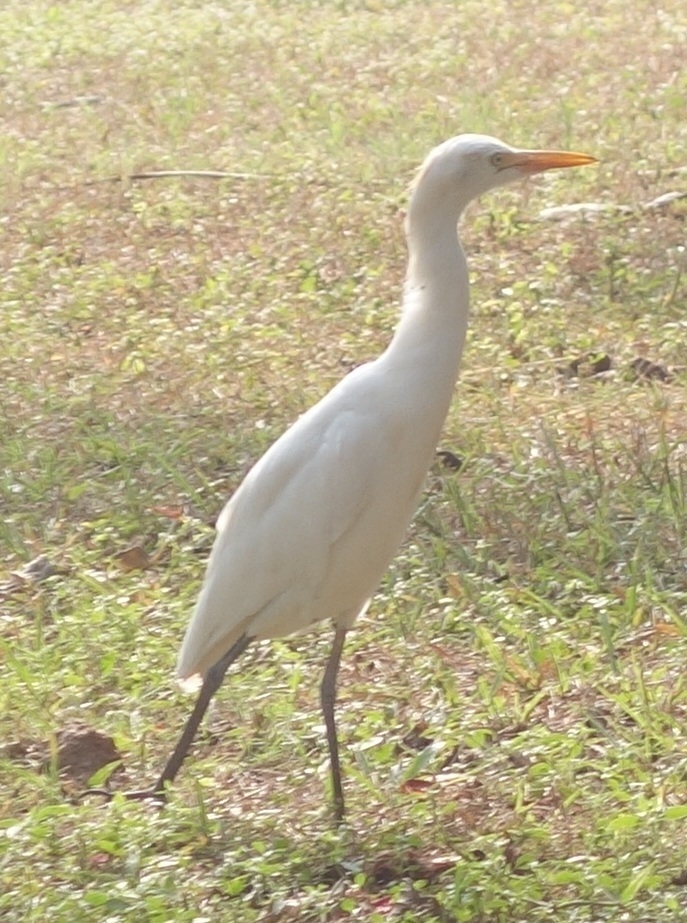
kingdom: Animalia
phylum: Chordata
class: Aves
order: Pelecaniformes
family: Ardeidae
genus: Bubulcus
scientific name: Bubulcus coromandus
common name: Eastern cattle egret
